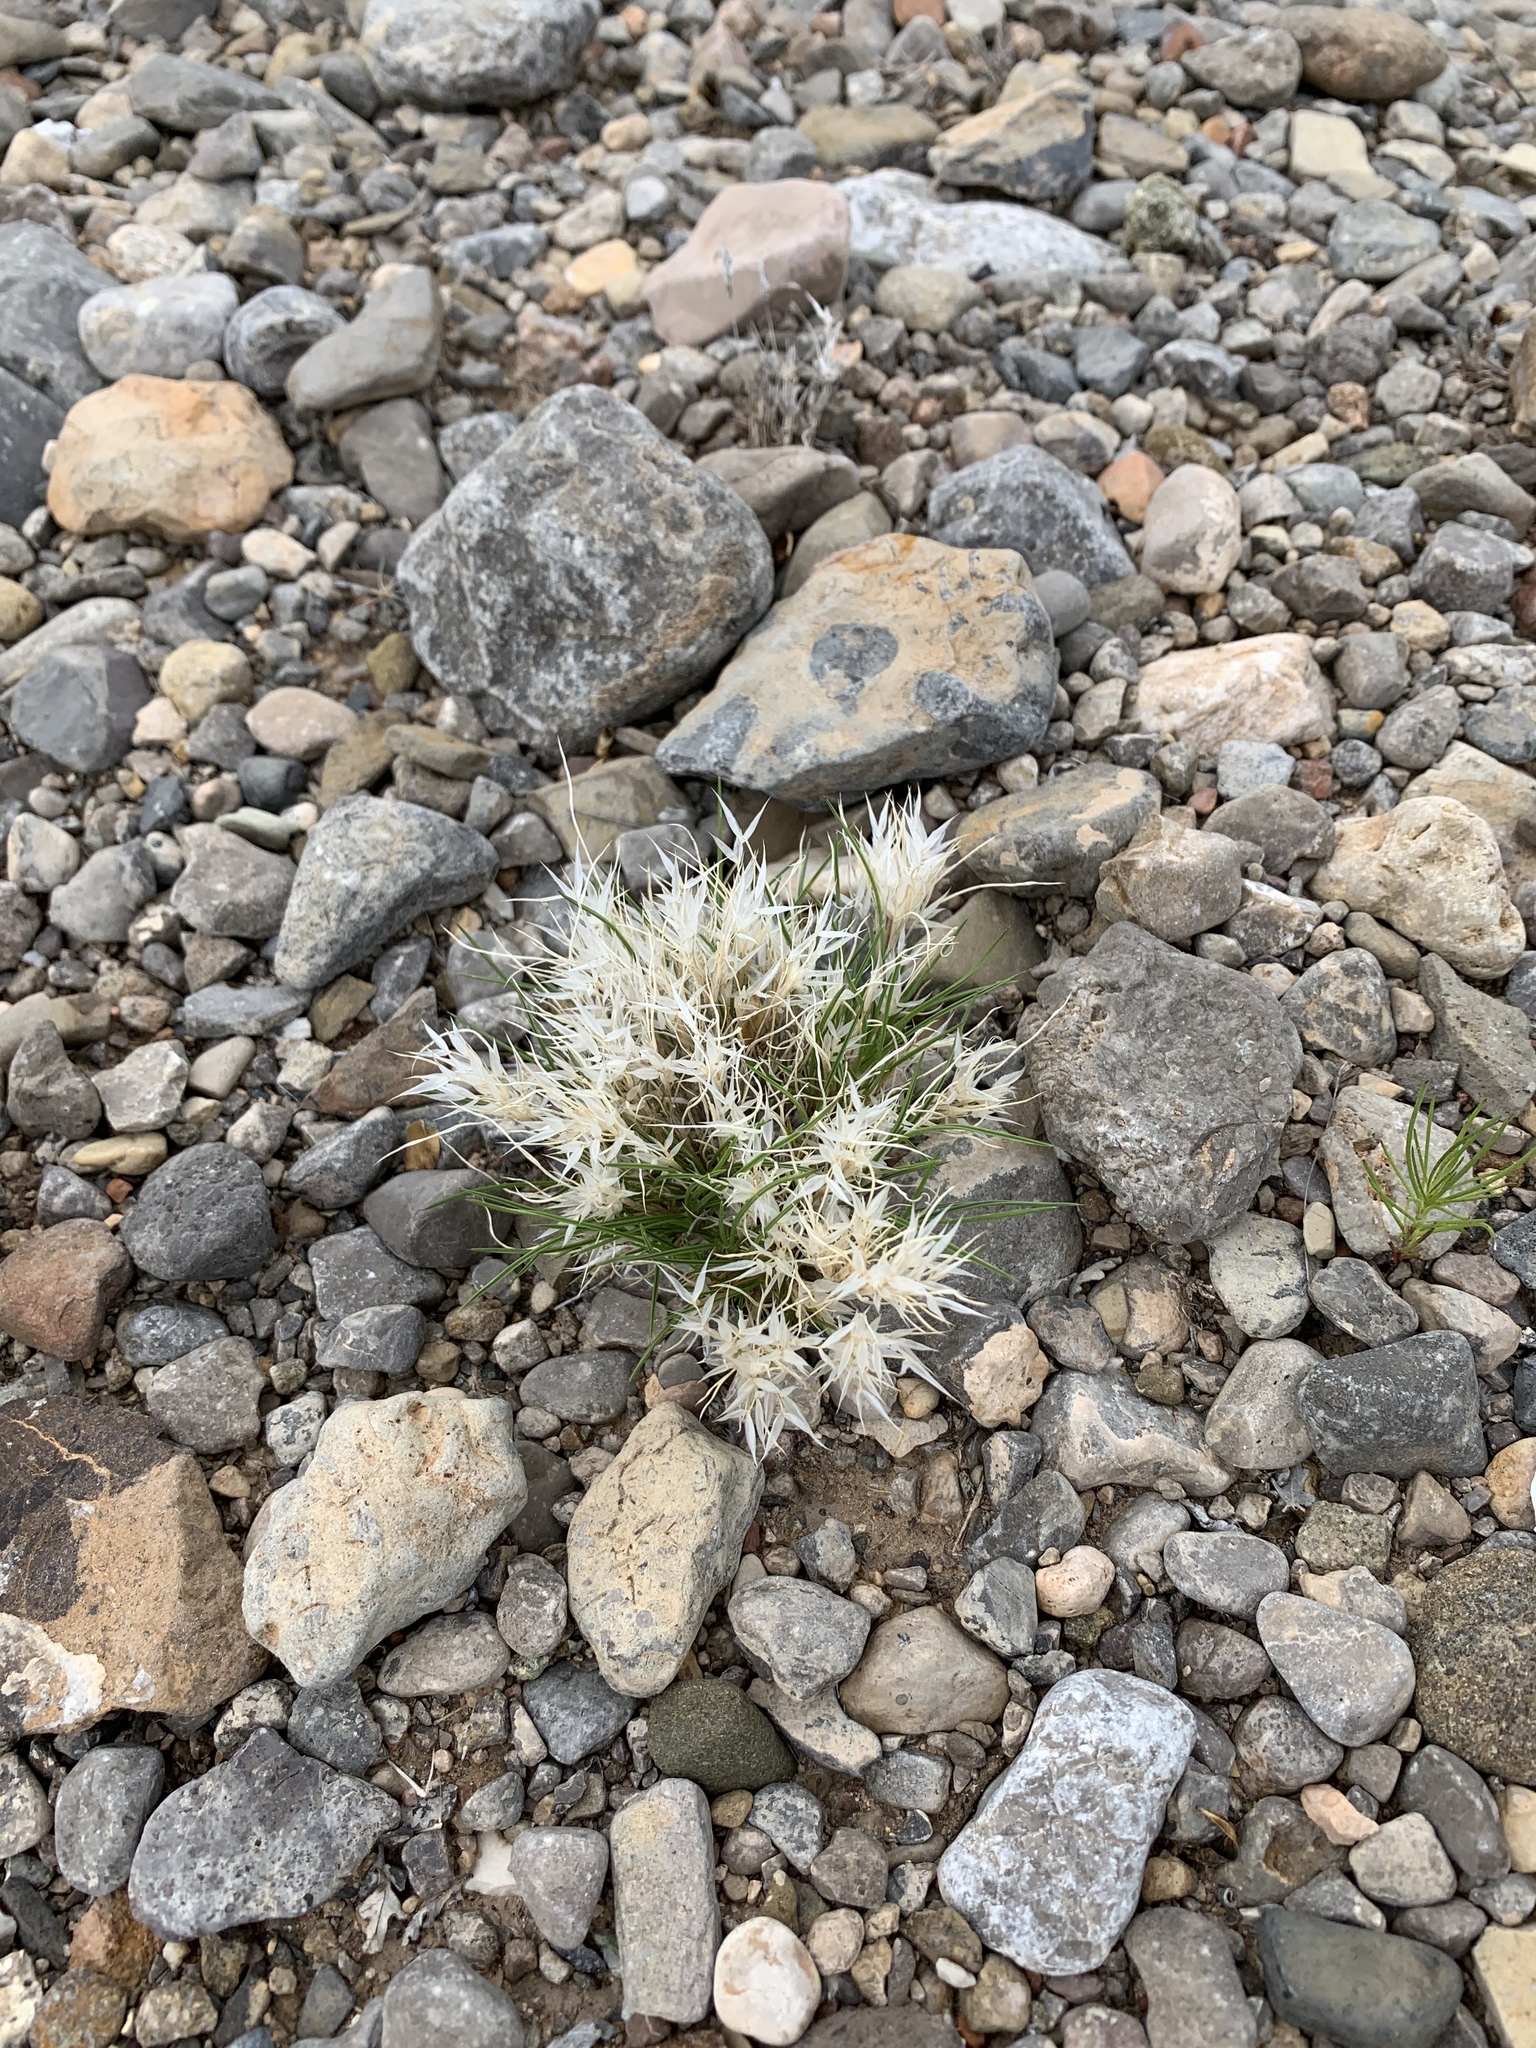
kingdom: Plantae
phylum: Tracheophyta
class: Liliopsida
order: Poales
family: Poaceae
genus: Dasyochloa
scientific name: Dasyochloa pulchella
